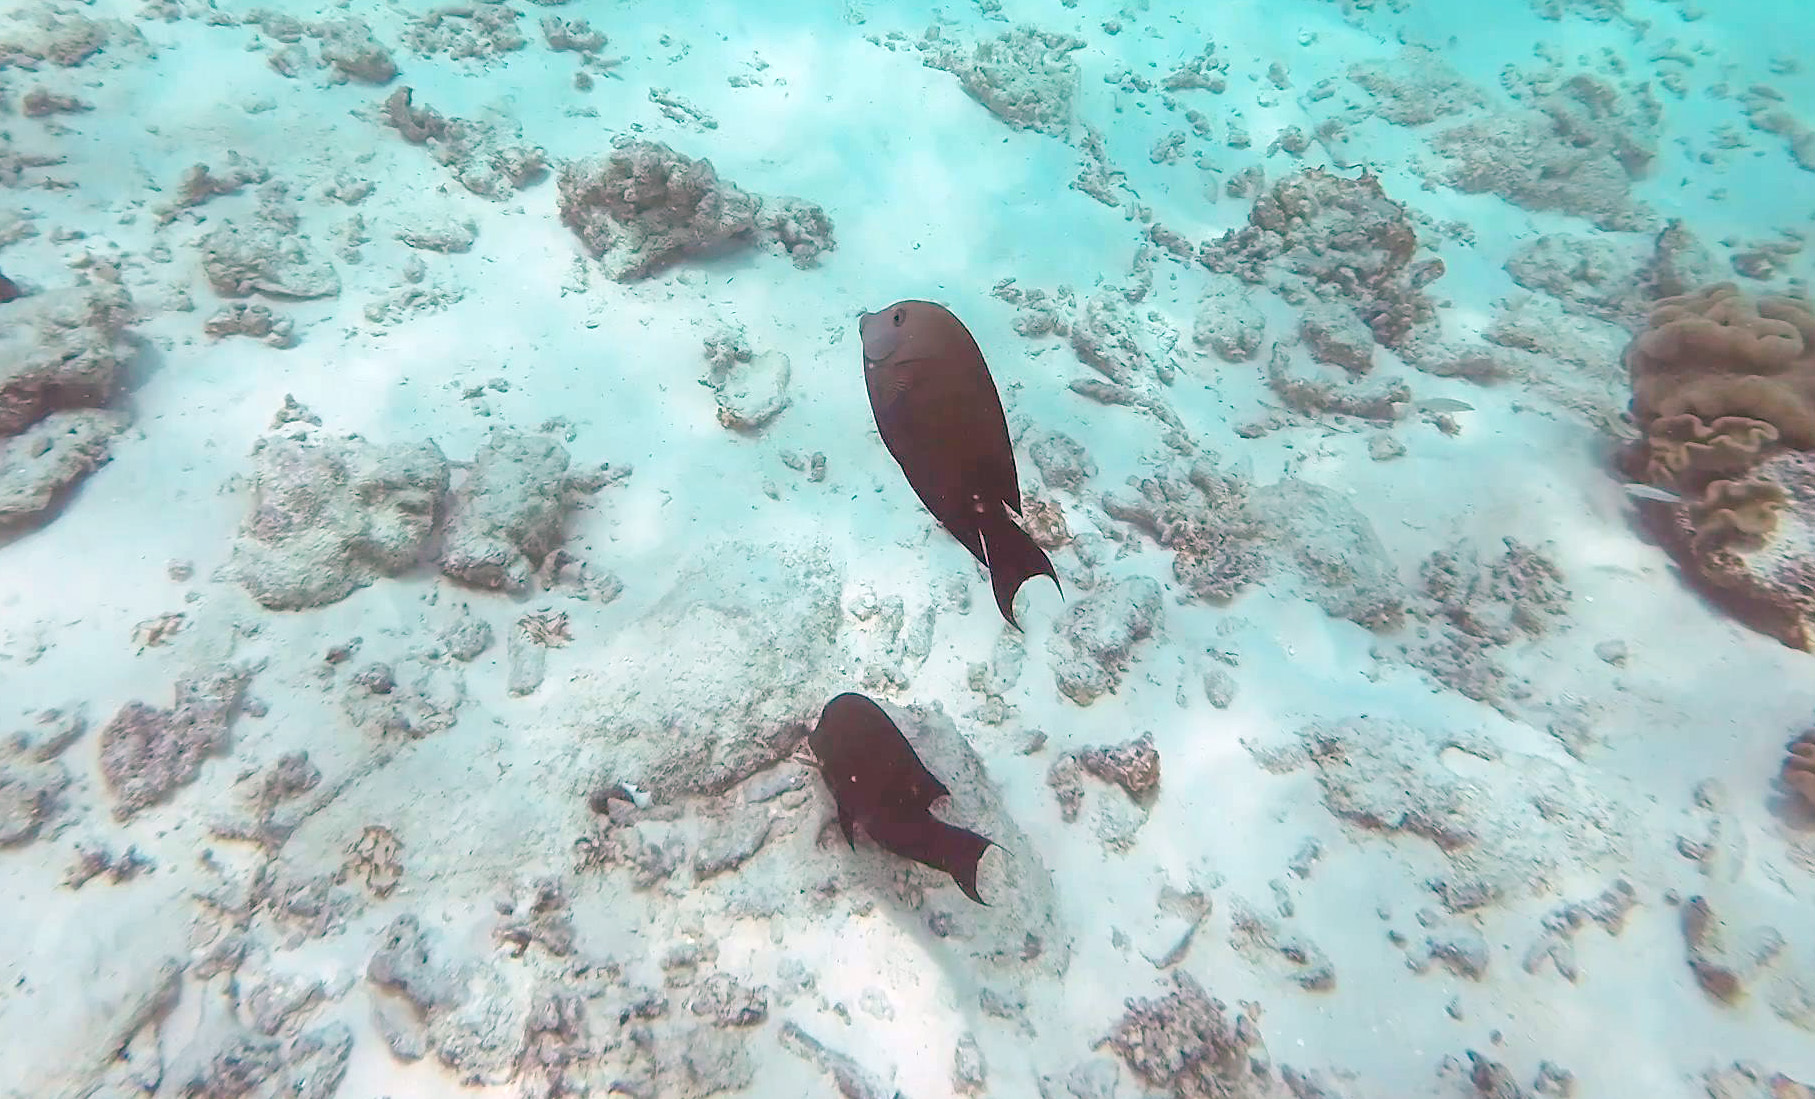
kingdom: Animalia
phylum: Chordata
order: Perciformes
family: Acanthuridae
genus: Ctenochaetus
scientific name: Ctenochaetus striatus
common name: Bristle-toothed surgeonfish
